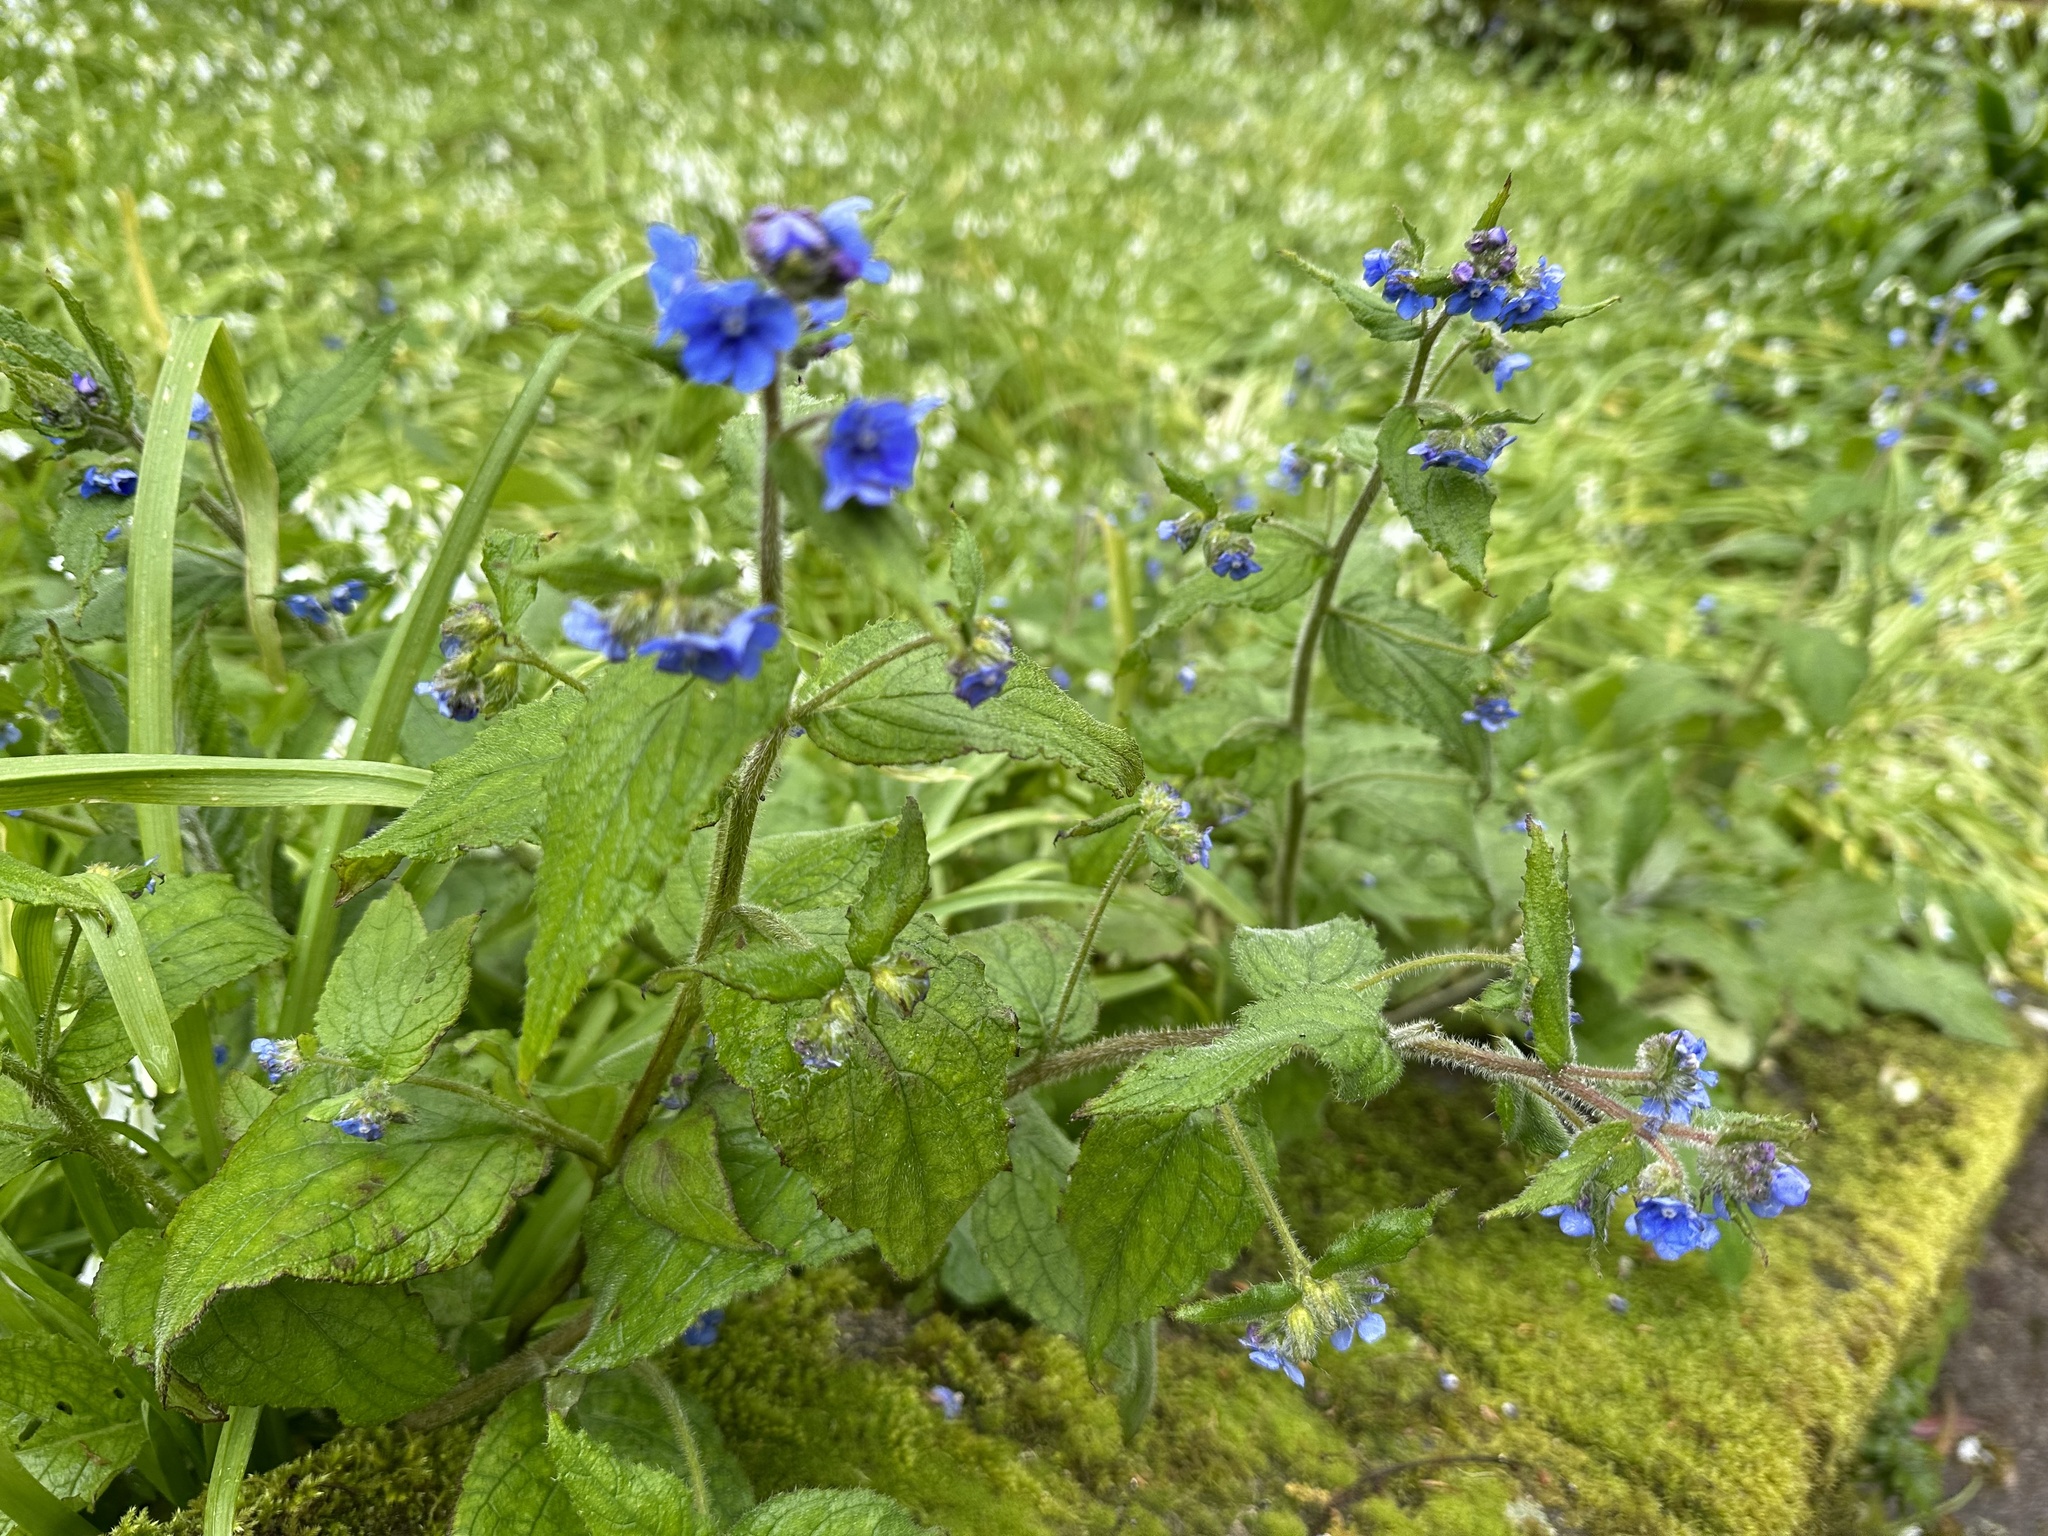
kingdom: Plantae
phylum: Tracheophyta
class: Magnoliopsida
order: Boraginales
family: Boraginaceae
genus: Pentaglottis
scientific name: Pentaglottis sempervirens
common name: Green alkanet
